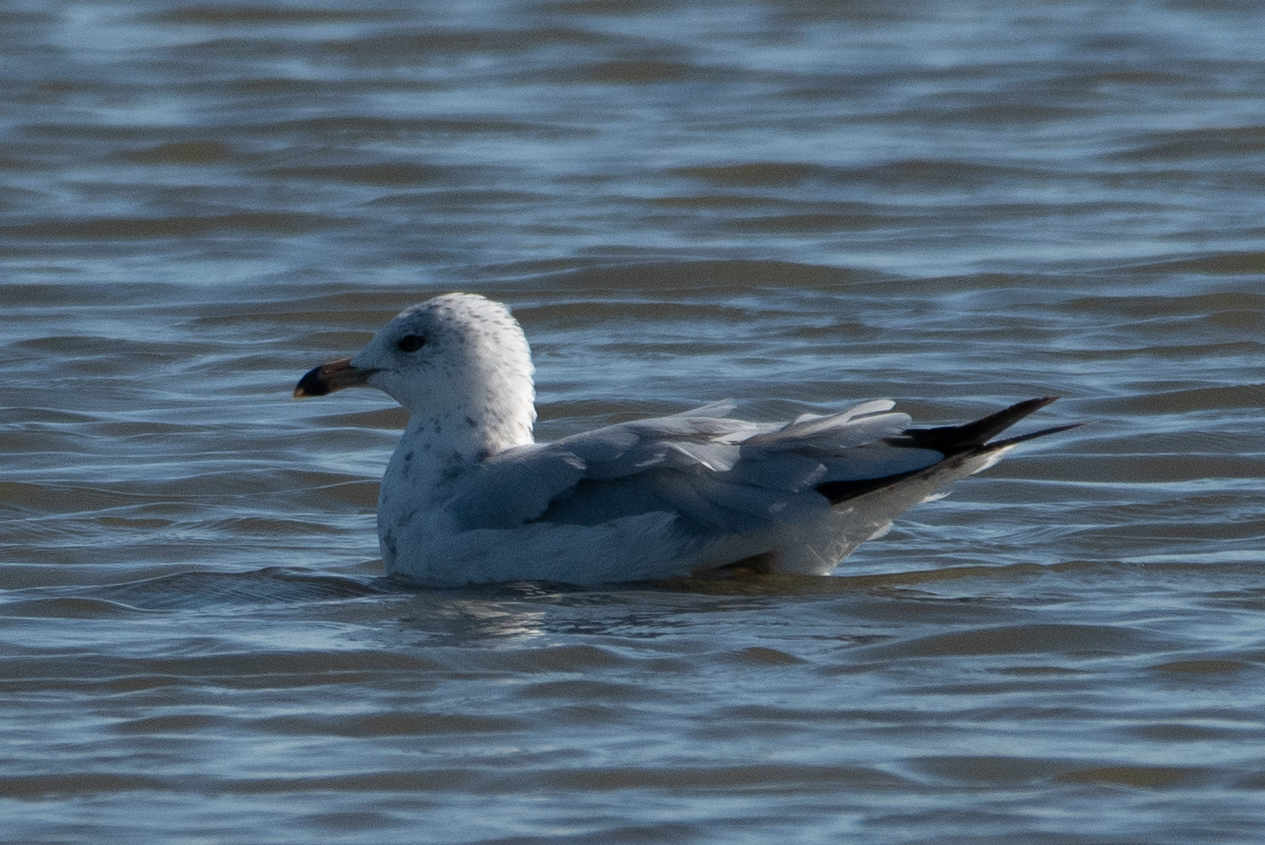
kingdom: Animalia
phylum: Chordata
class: Aves
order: Charadriiformes
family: Laridae
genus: Larus
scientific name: Larus delawarensis
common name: Ring-billed gull
